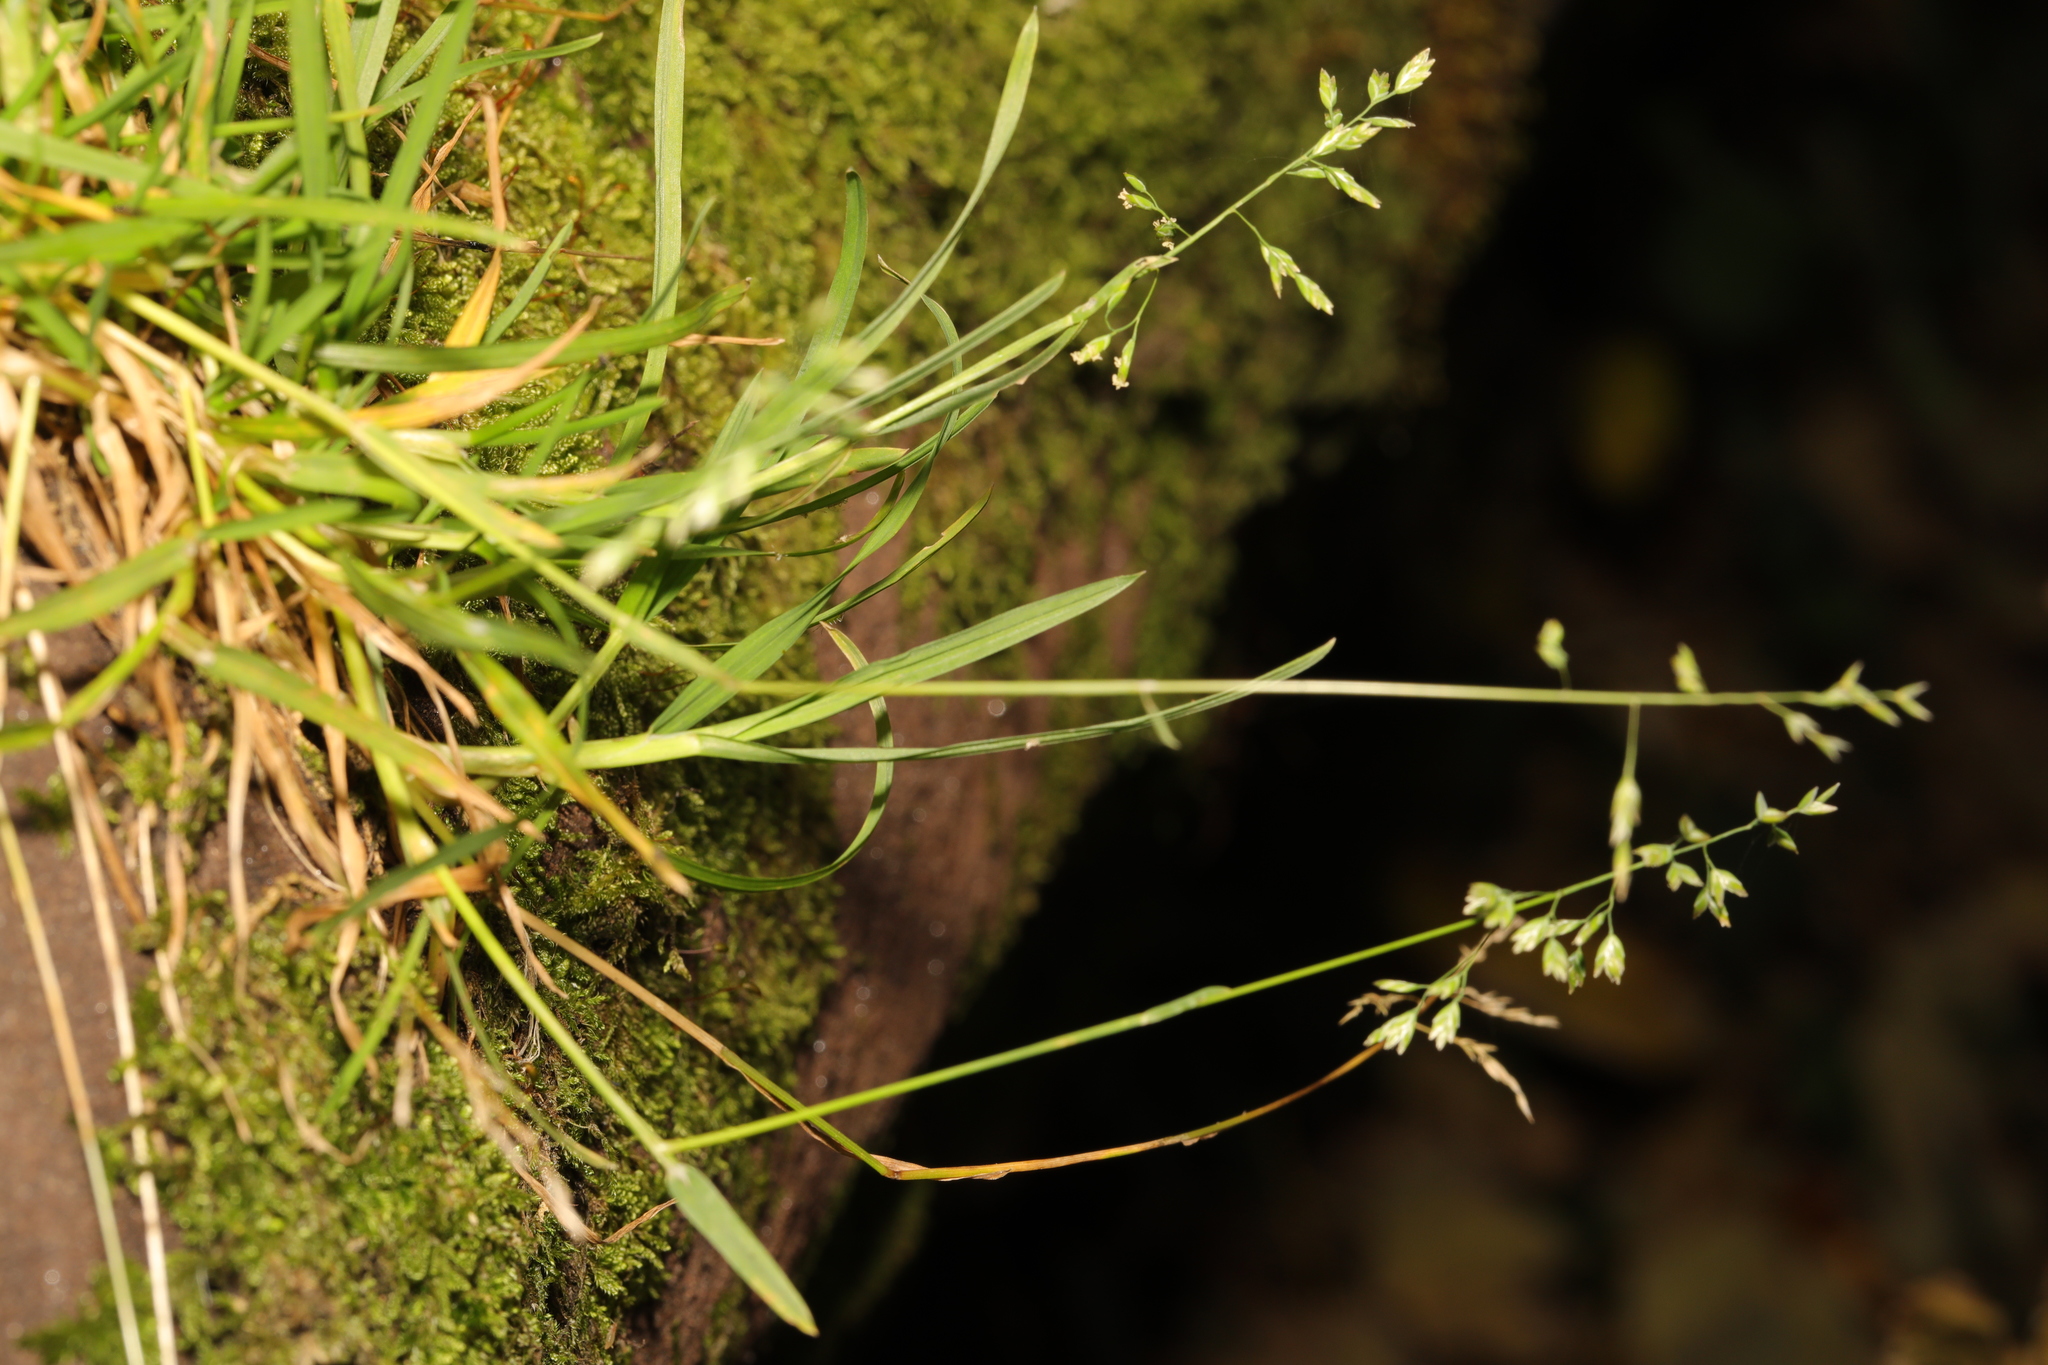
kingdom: Plantae
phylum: Tracheophyta
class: Liliopsida
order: Poales
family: Poaceae
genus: Poa
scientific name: Poa annua
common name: Annual bluegrass
